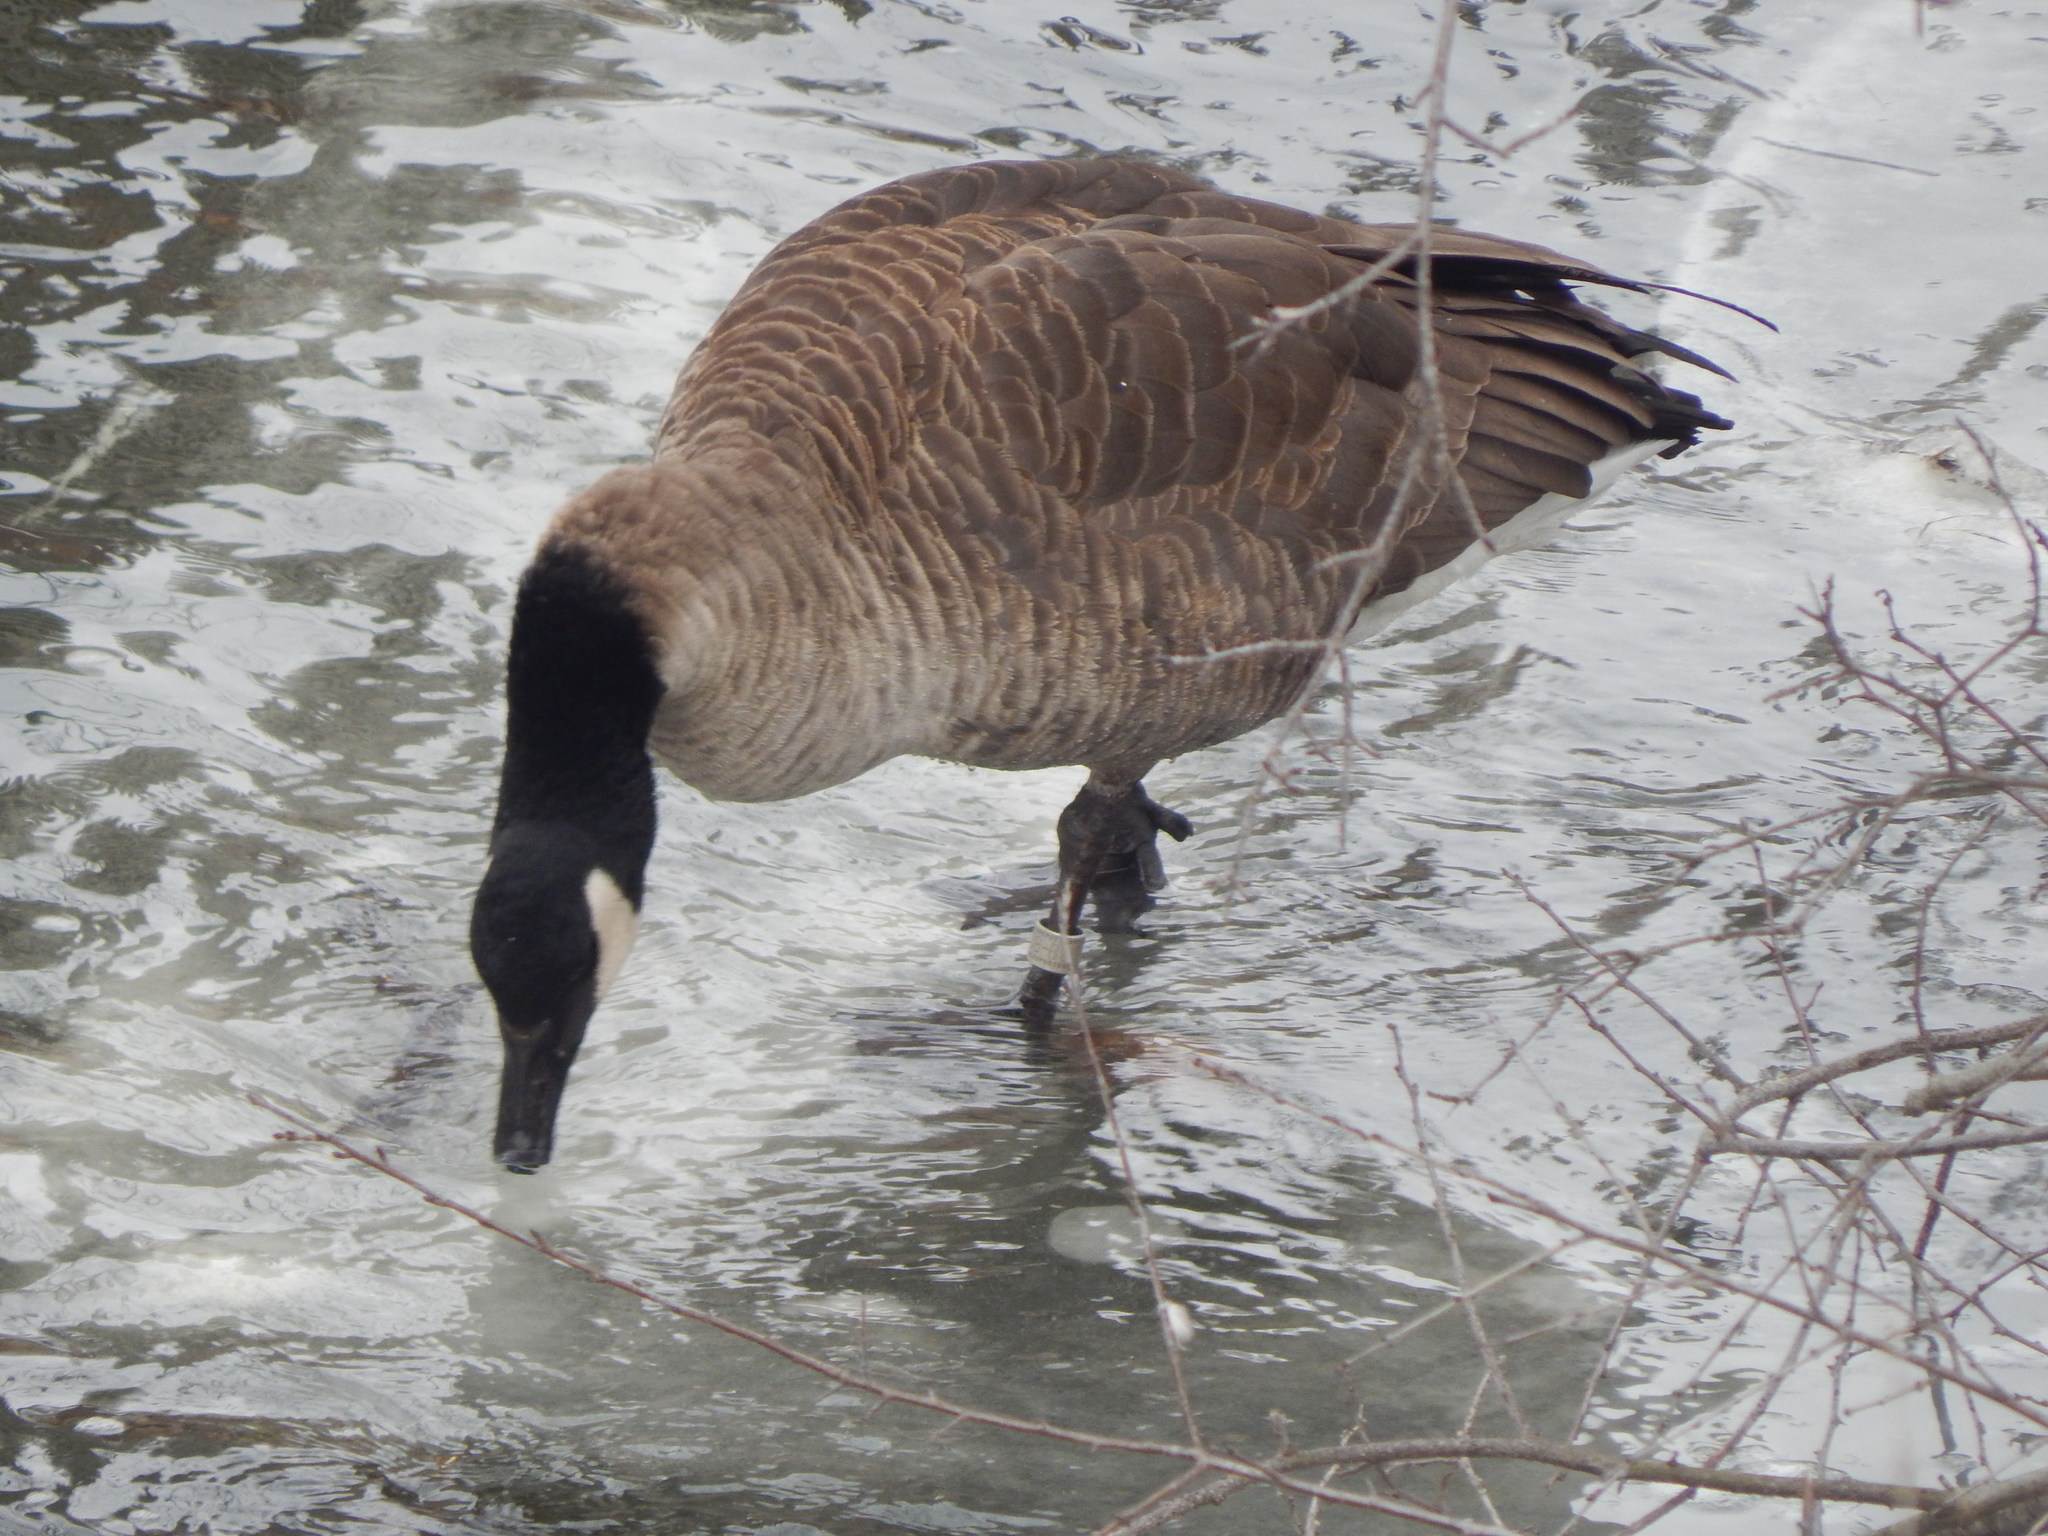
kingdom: Animalia
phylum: Chordata
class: Aves
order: Anseriformes
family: Anatidae
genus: Branta
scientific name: Branta canadensis
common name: Canada goose
